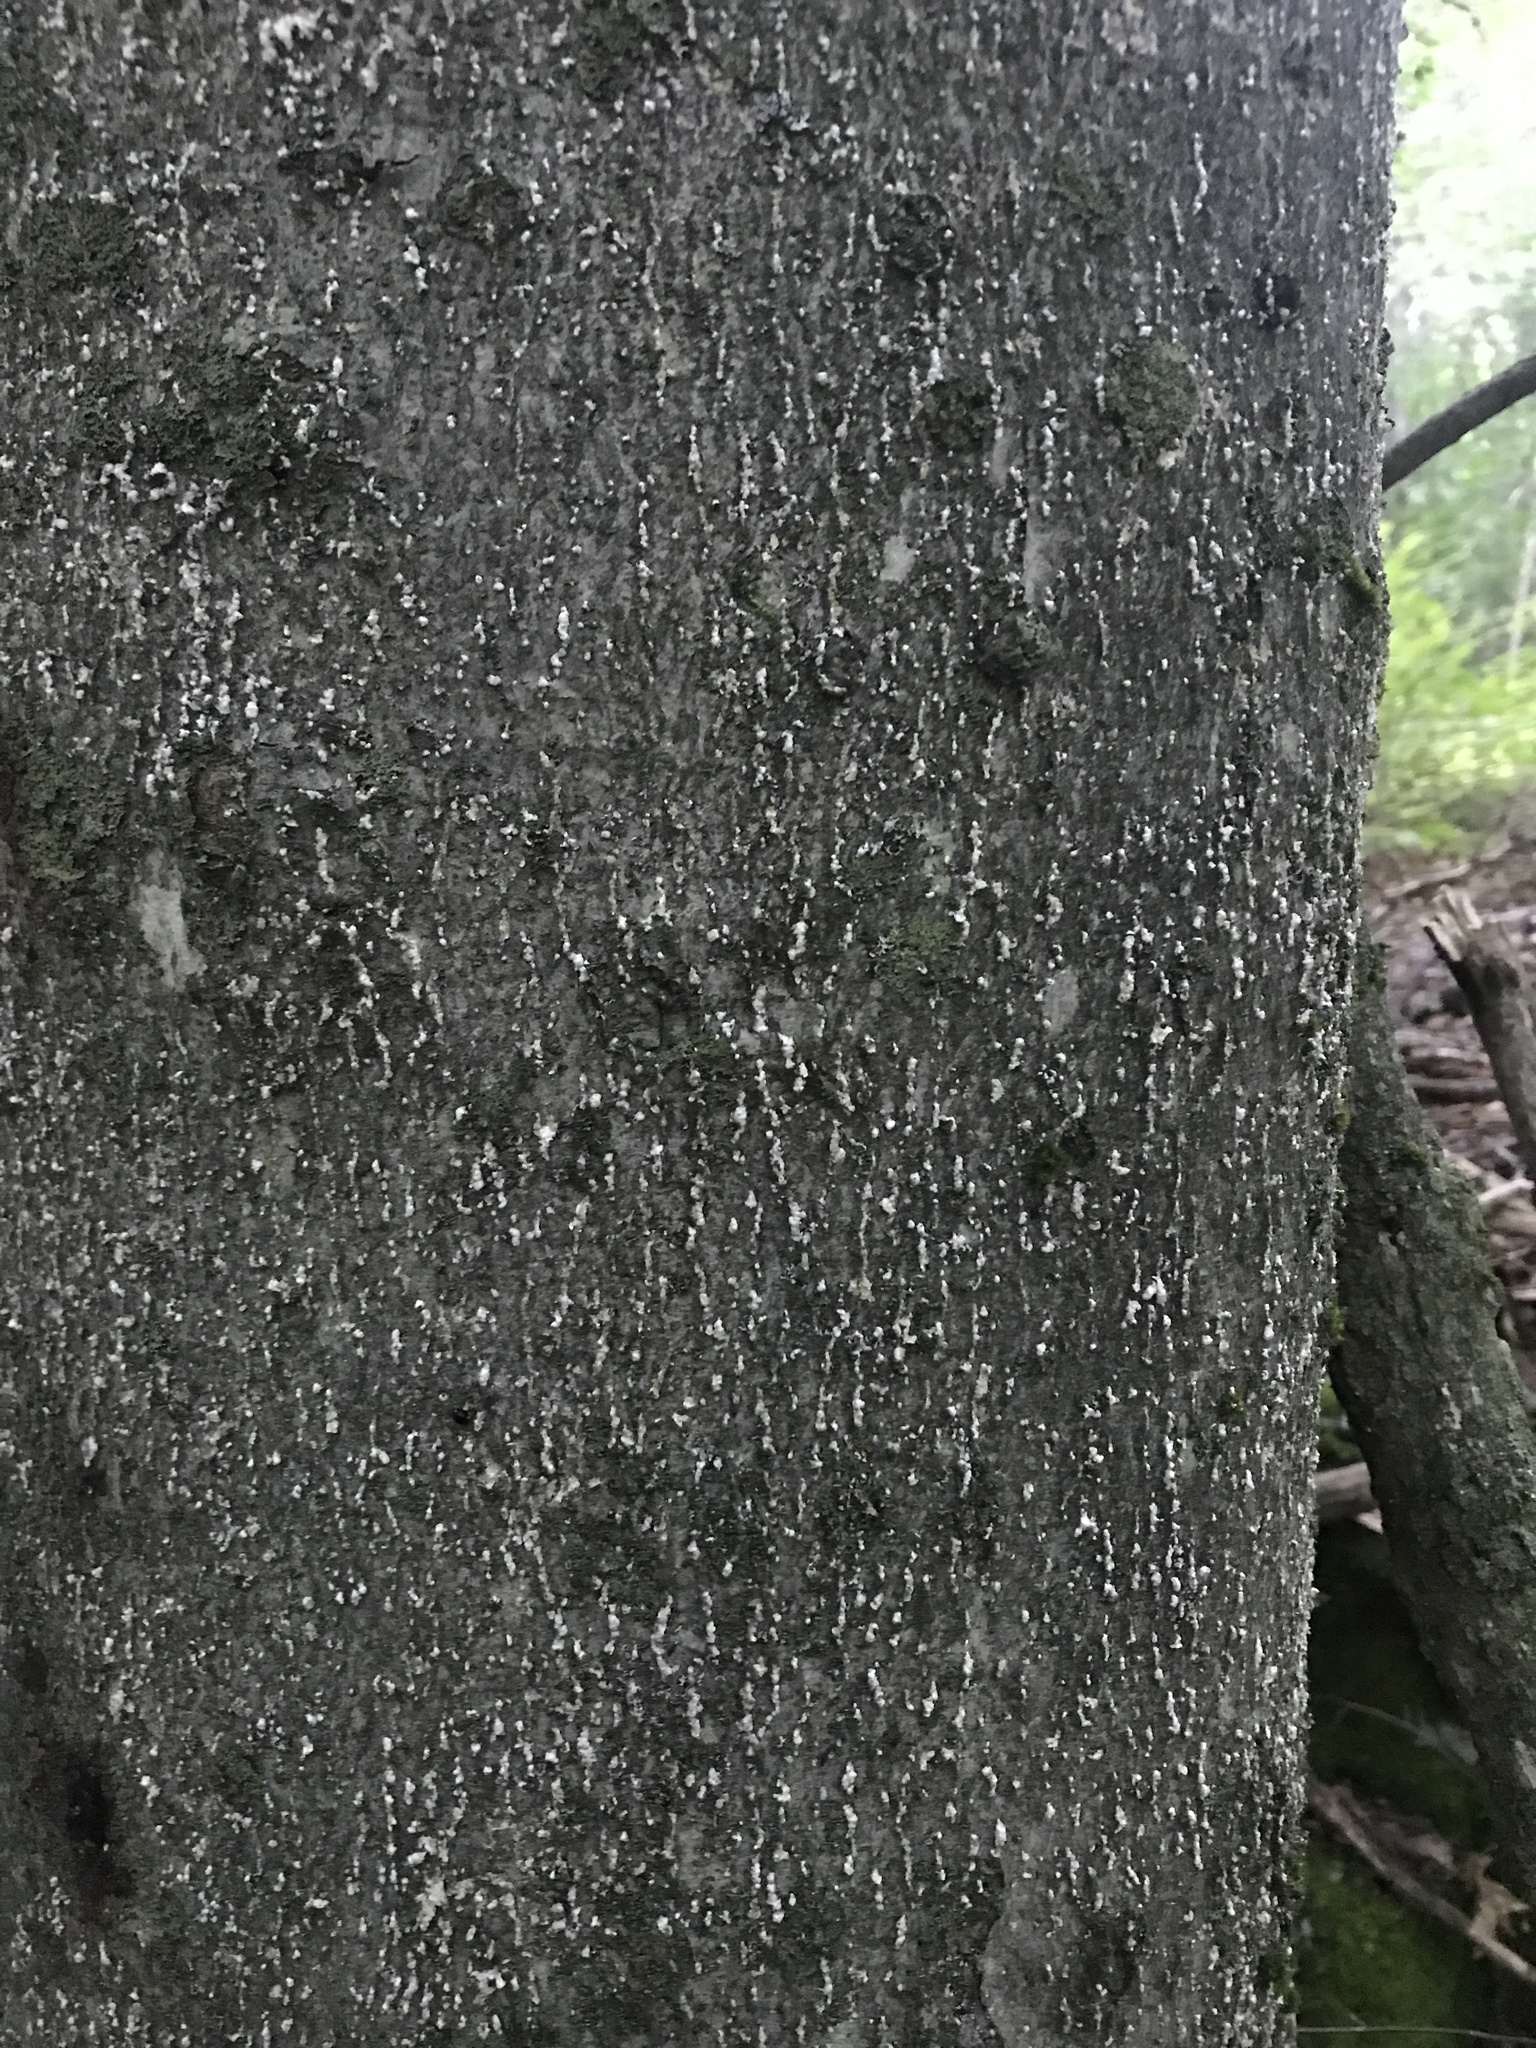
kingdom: Plantae
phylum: Tracheophyta
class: Magnoliopsida
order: Fagales
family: Fagaceae
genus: Fagus
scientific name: Fagus grandifolia
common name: American beech
